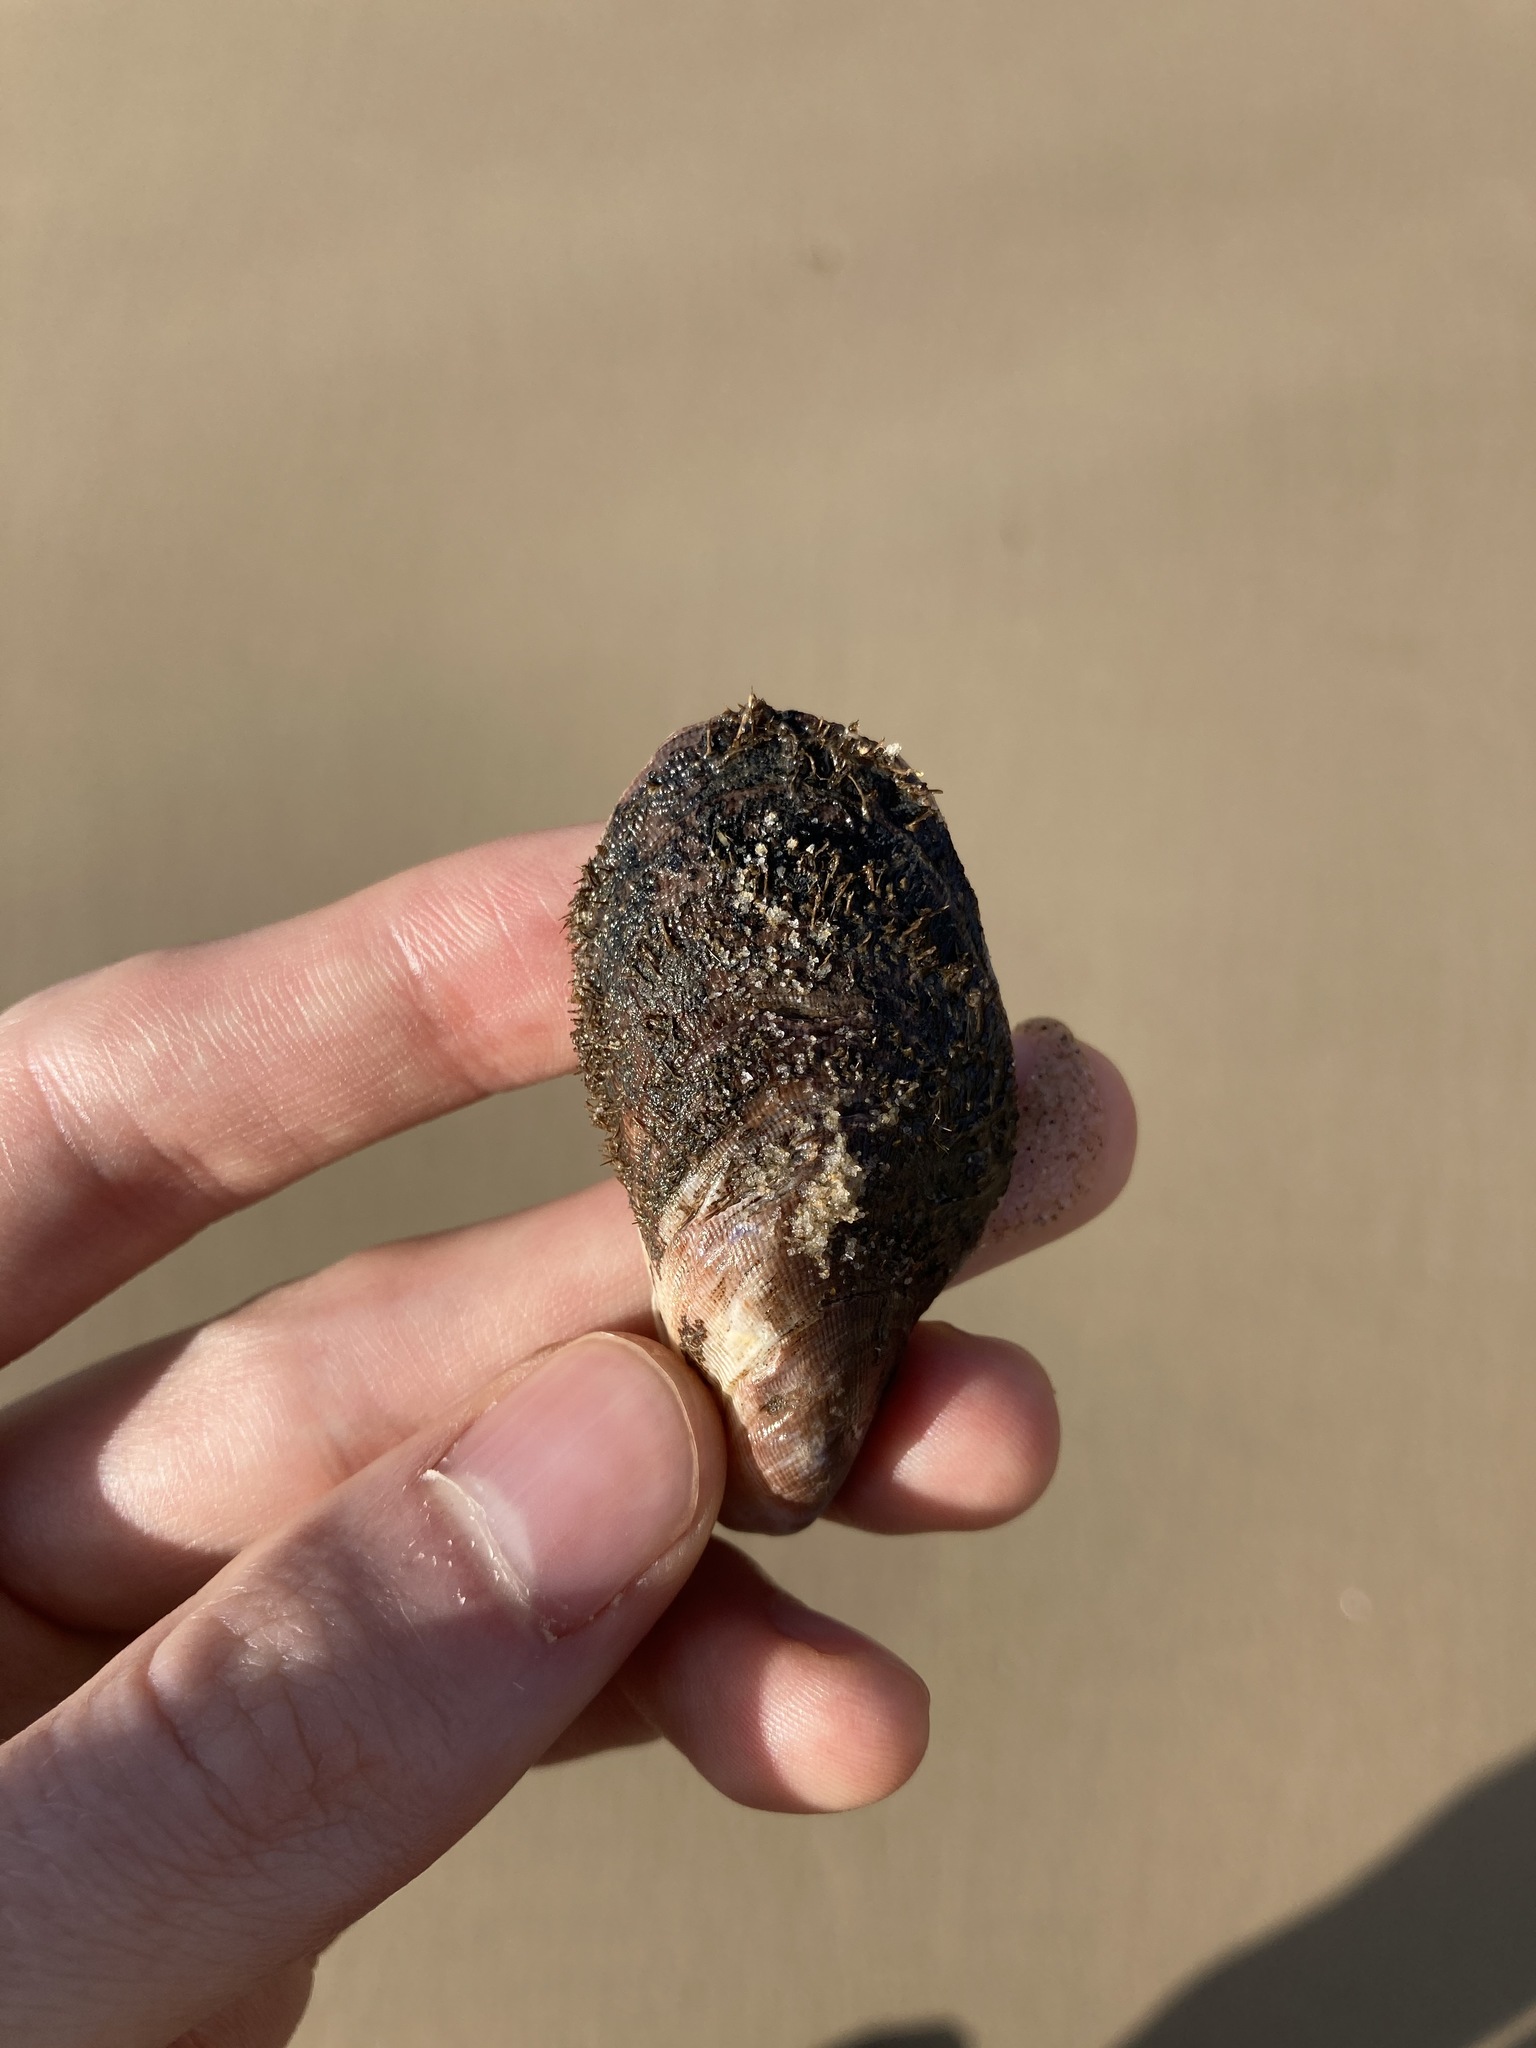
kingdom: Animalia
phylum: Mollusca
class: Bivalvia
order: Mytilida
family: Mytilidae
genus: Trichomya
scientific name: Trichomya hirsuta
